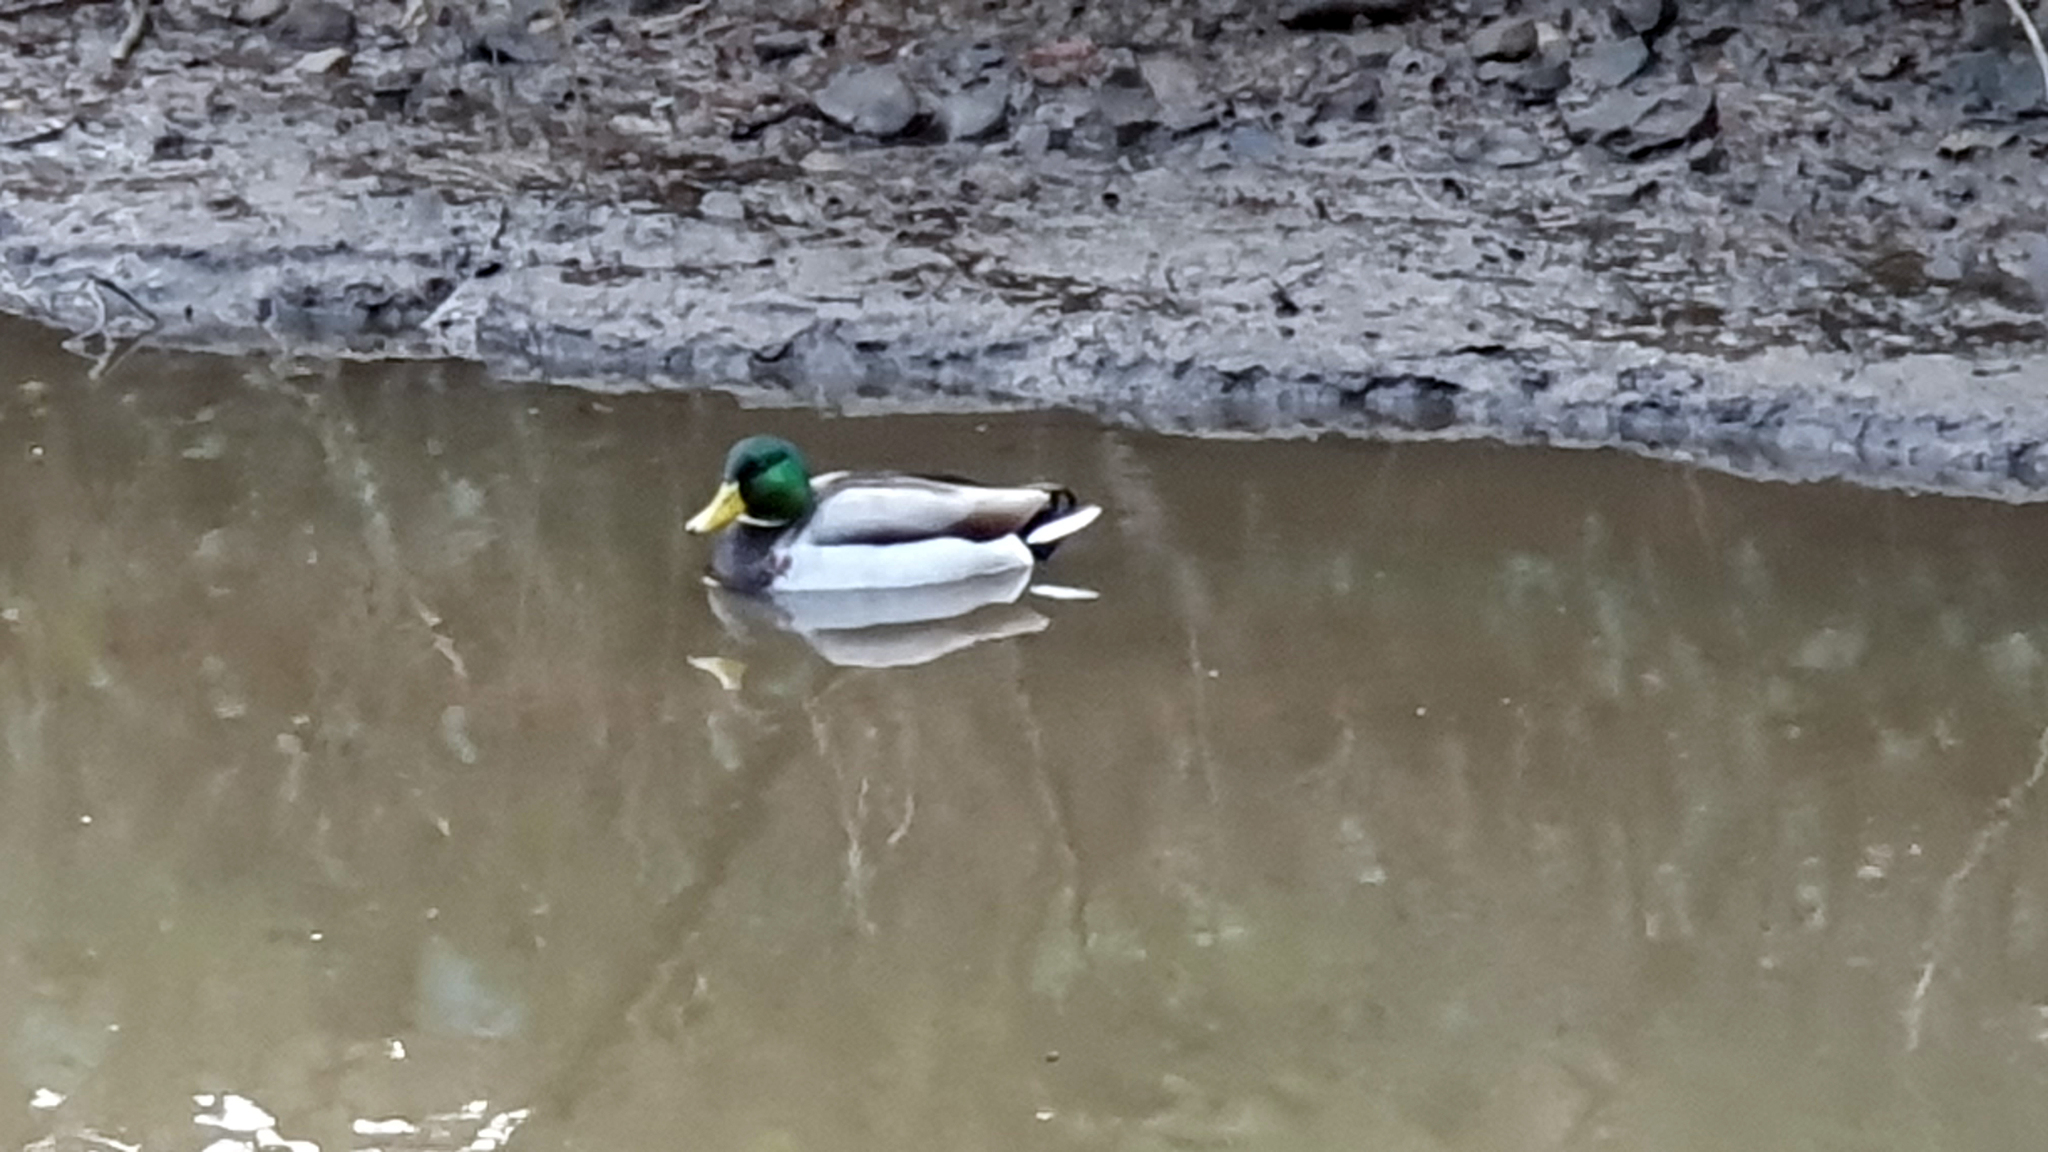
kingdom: Animalia
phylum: Chordata
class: Aves
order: Anseriformes
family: Anatidae
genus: Anas
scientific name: Anas platyrhynchos
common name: Mallard
